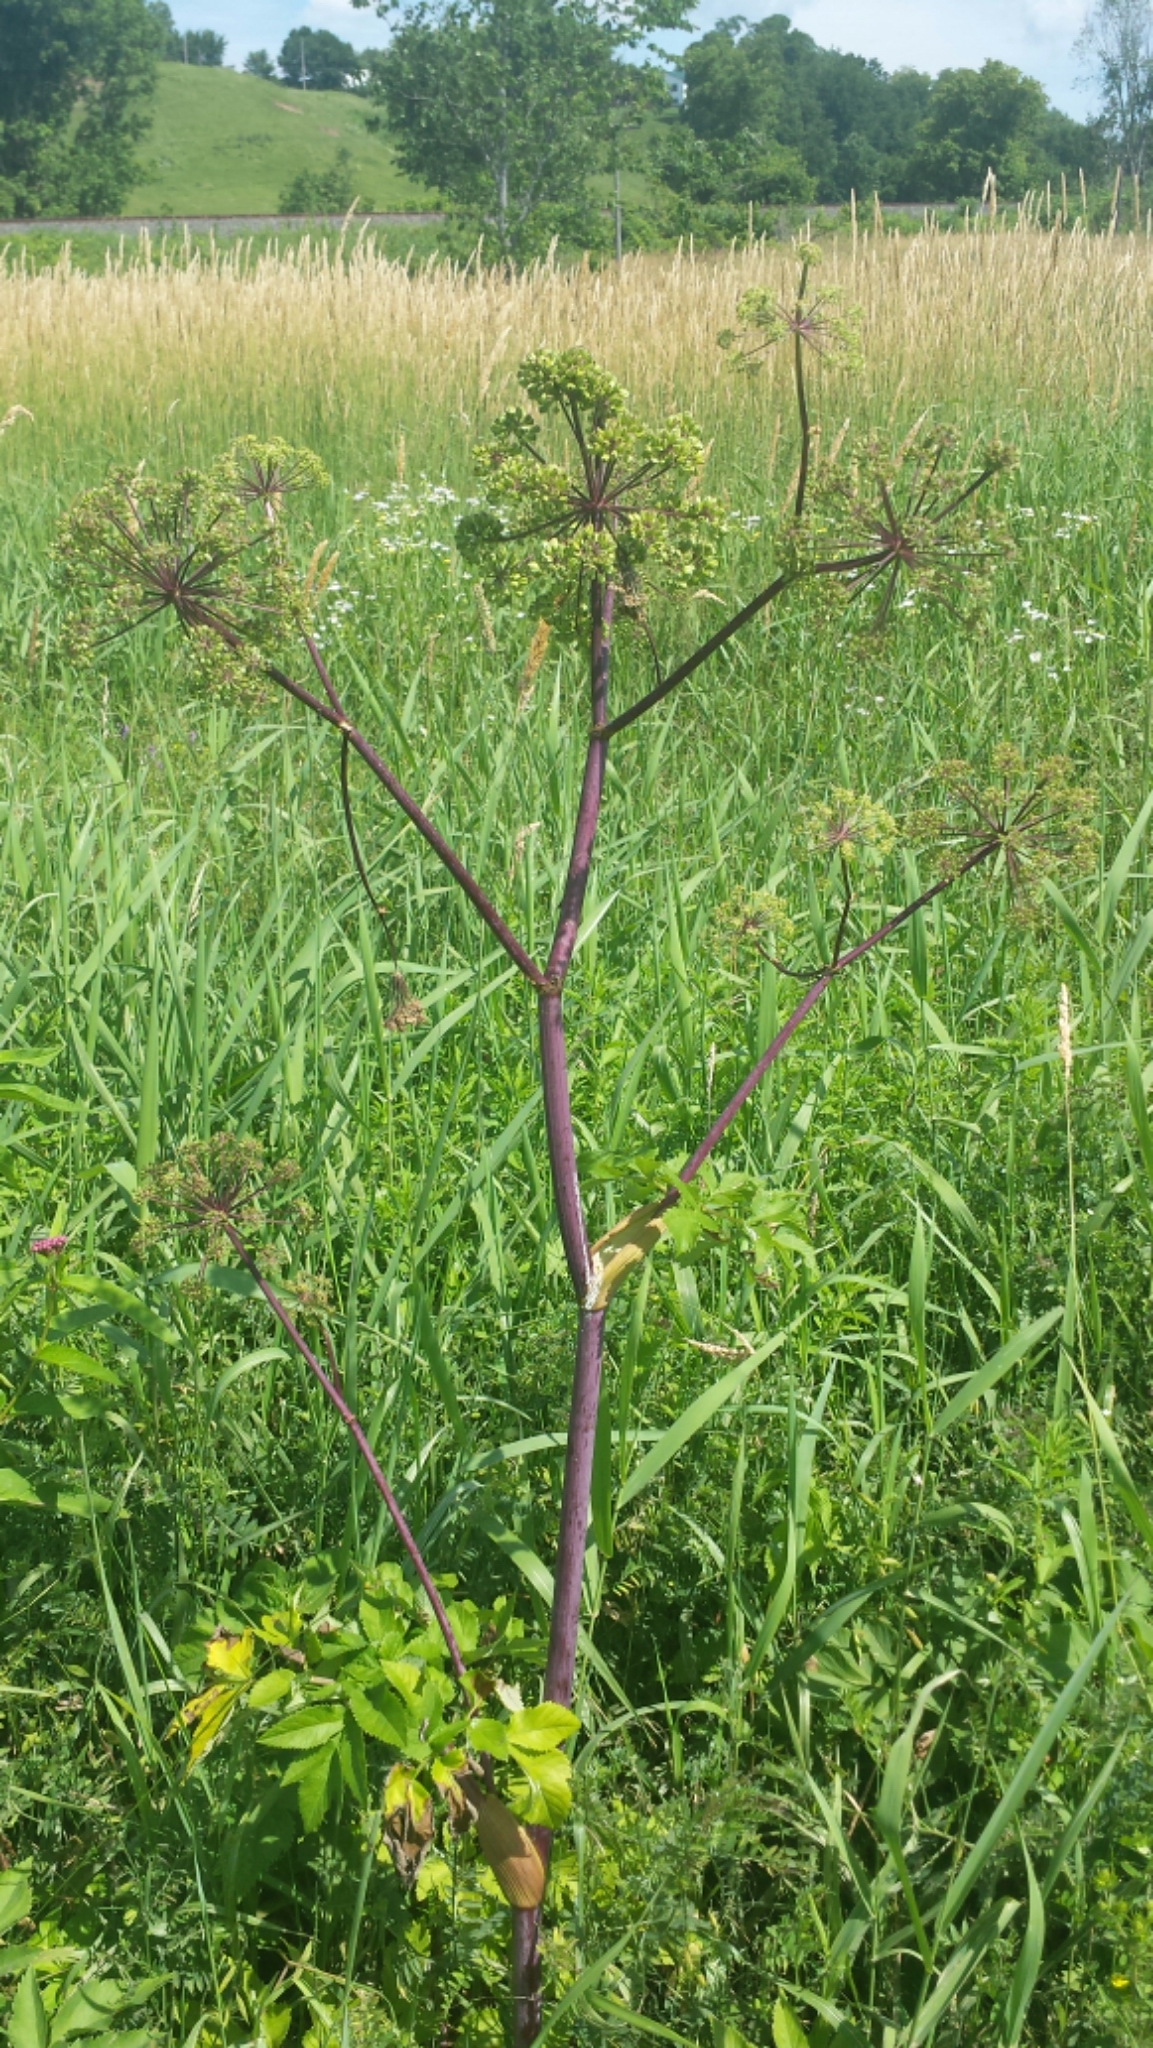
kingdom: Plantae
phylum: Tracheophyta
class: Magnoliopsida
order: Apiales
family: Apiaceae
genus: Angelica
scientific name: Angelica atropurpurea
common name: Great angelica
